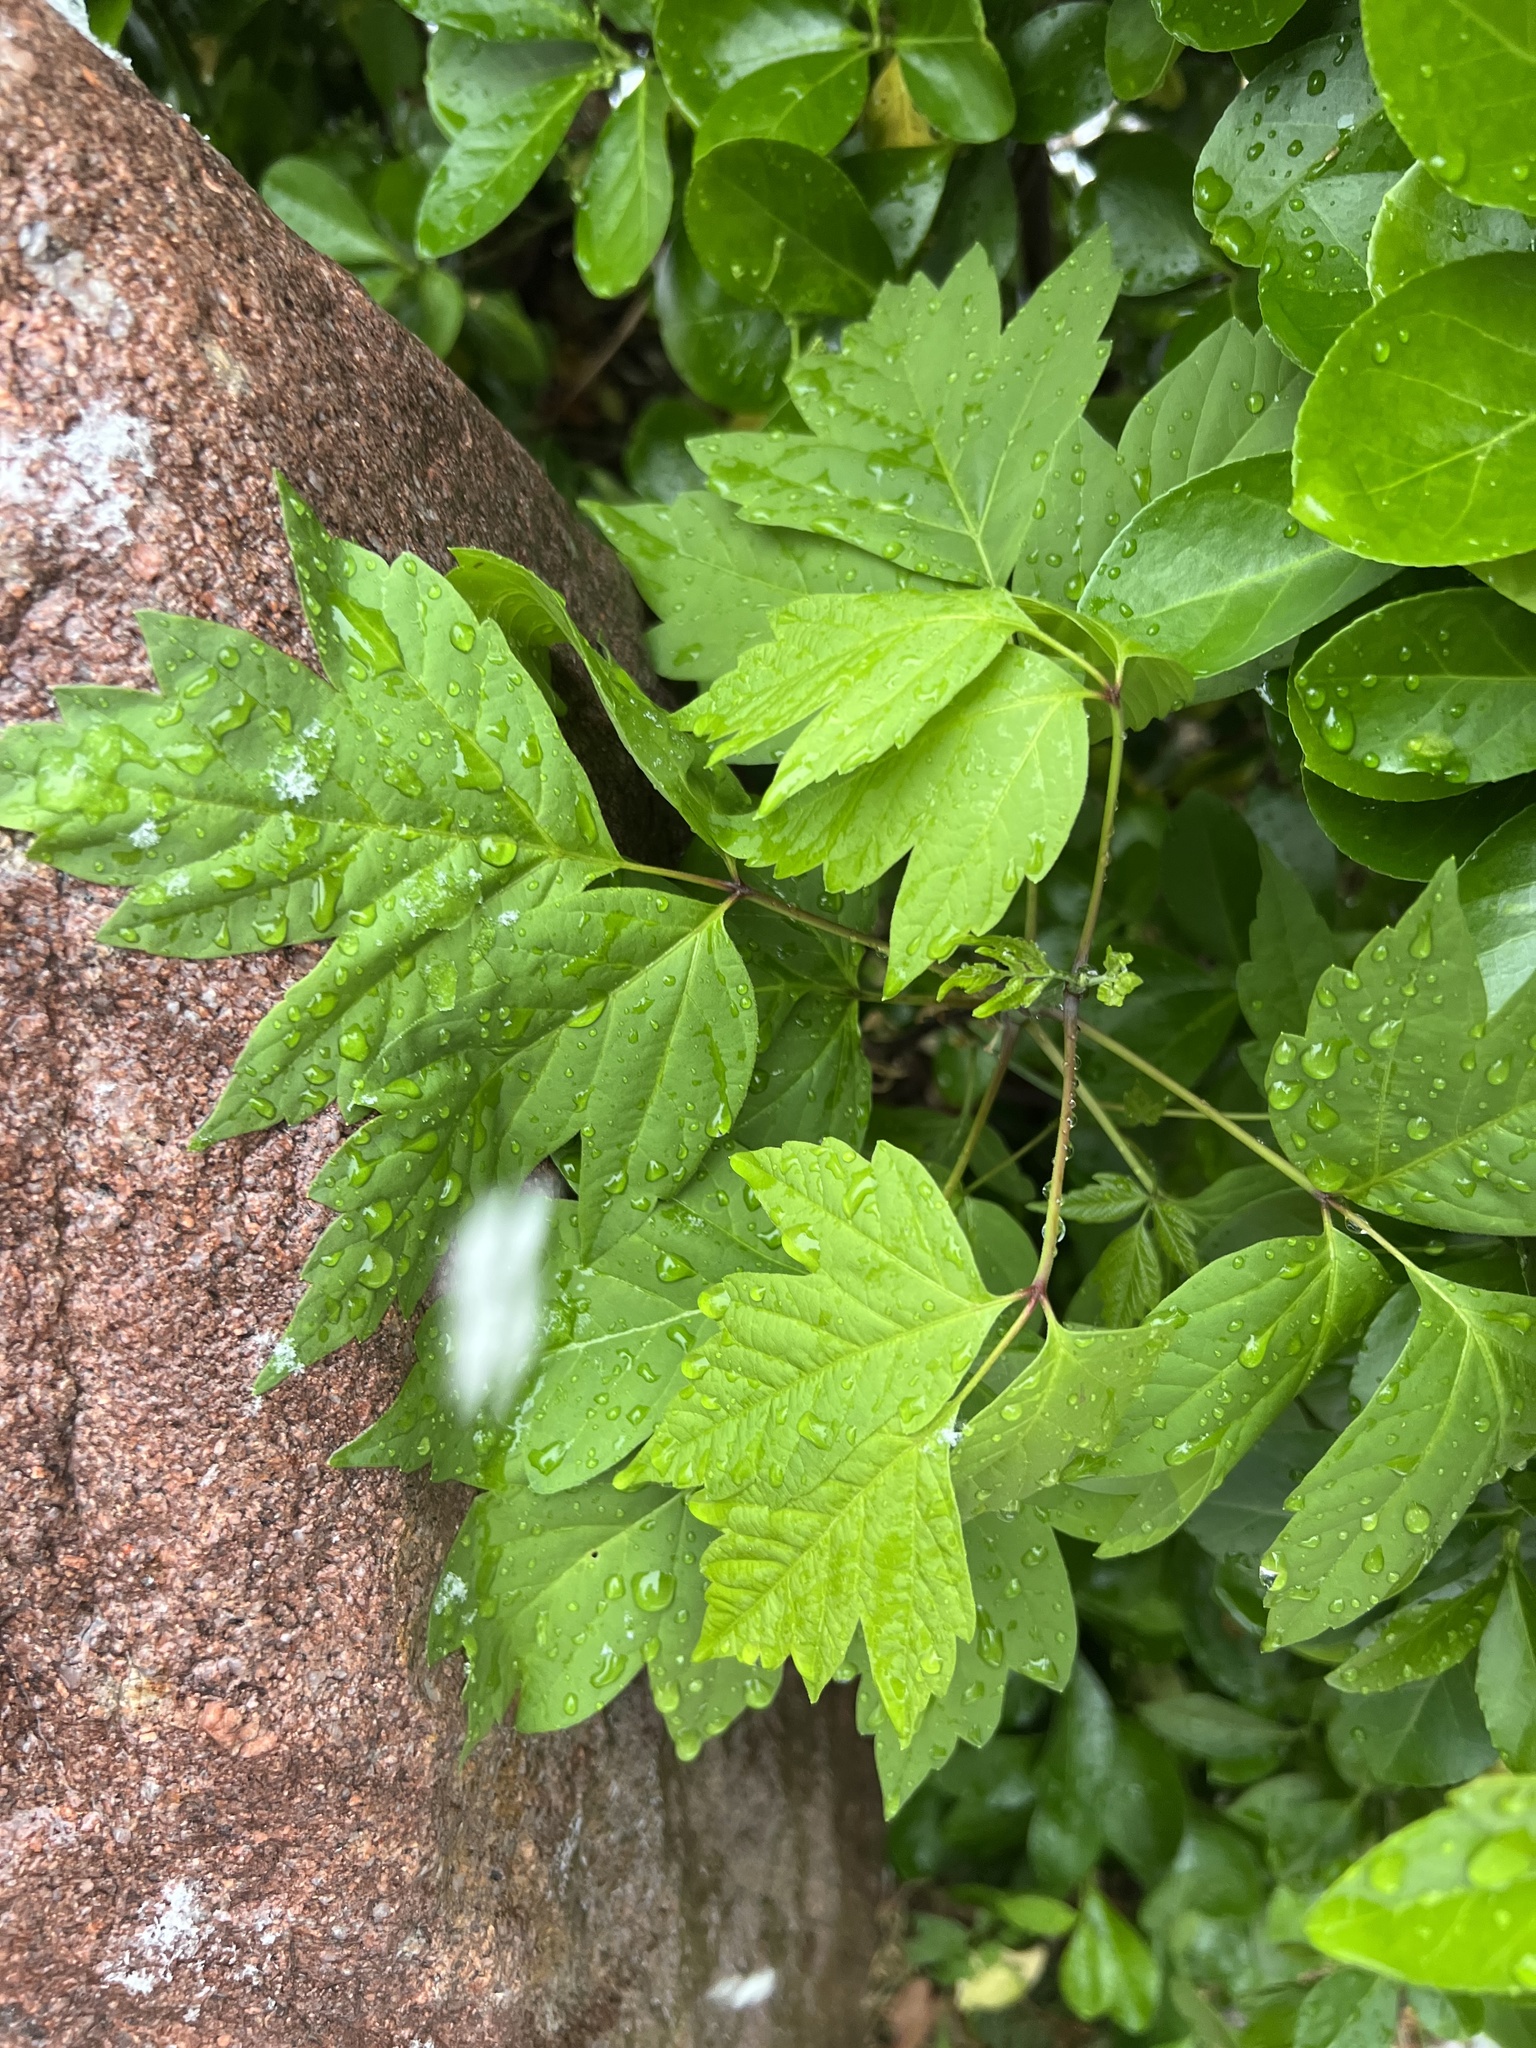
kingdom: Plantae
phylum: Tracheophyta
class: Magnoliopsida
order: Sapindales
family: Sapindaceae
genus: Acer
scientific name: Acer negundo
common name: Ashleaf maple
